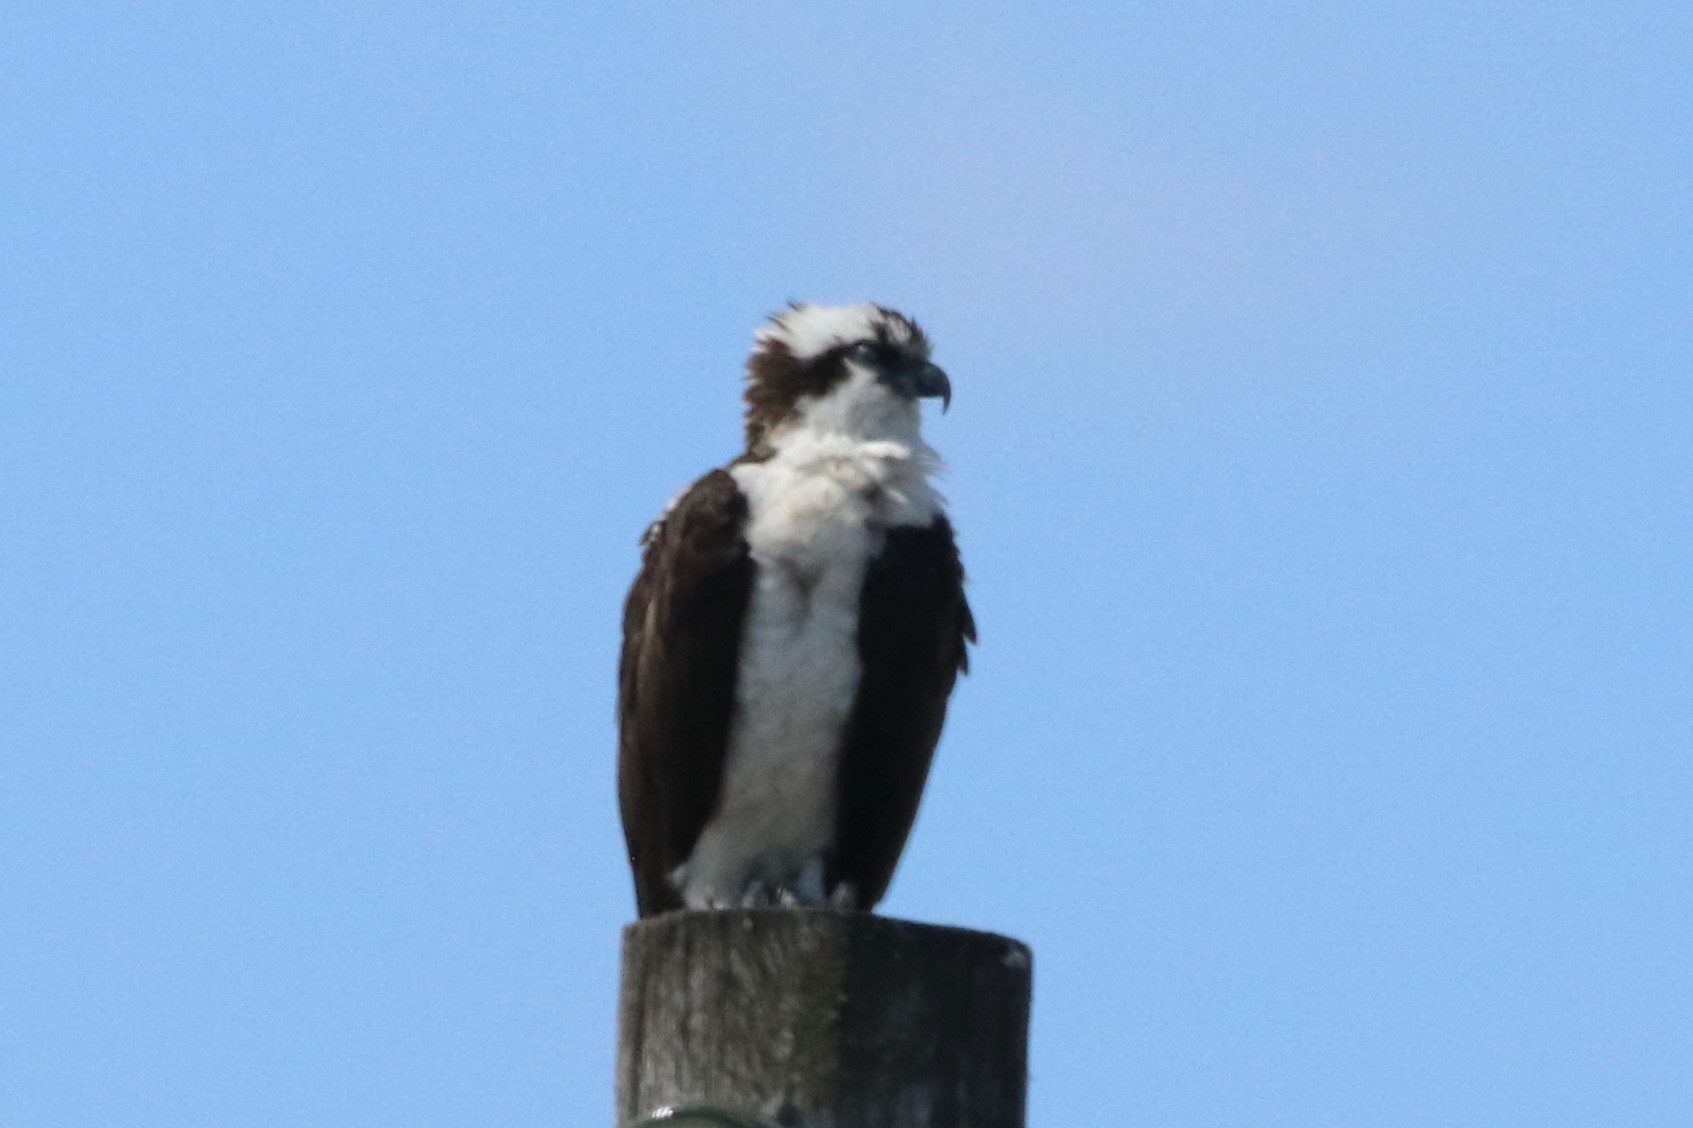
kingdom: Animalia
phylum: Chordata
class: Aves
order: Accipitriformes
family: Pandionidae
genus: Pandion
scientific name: Pandion haliaetus
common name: Osprey
